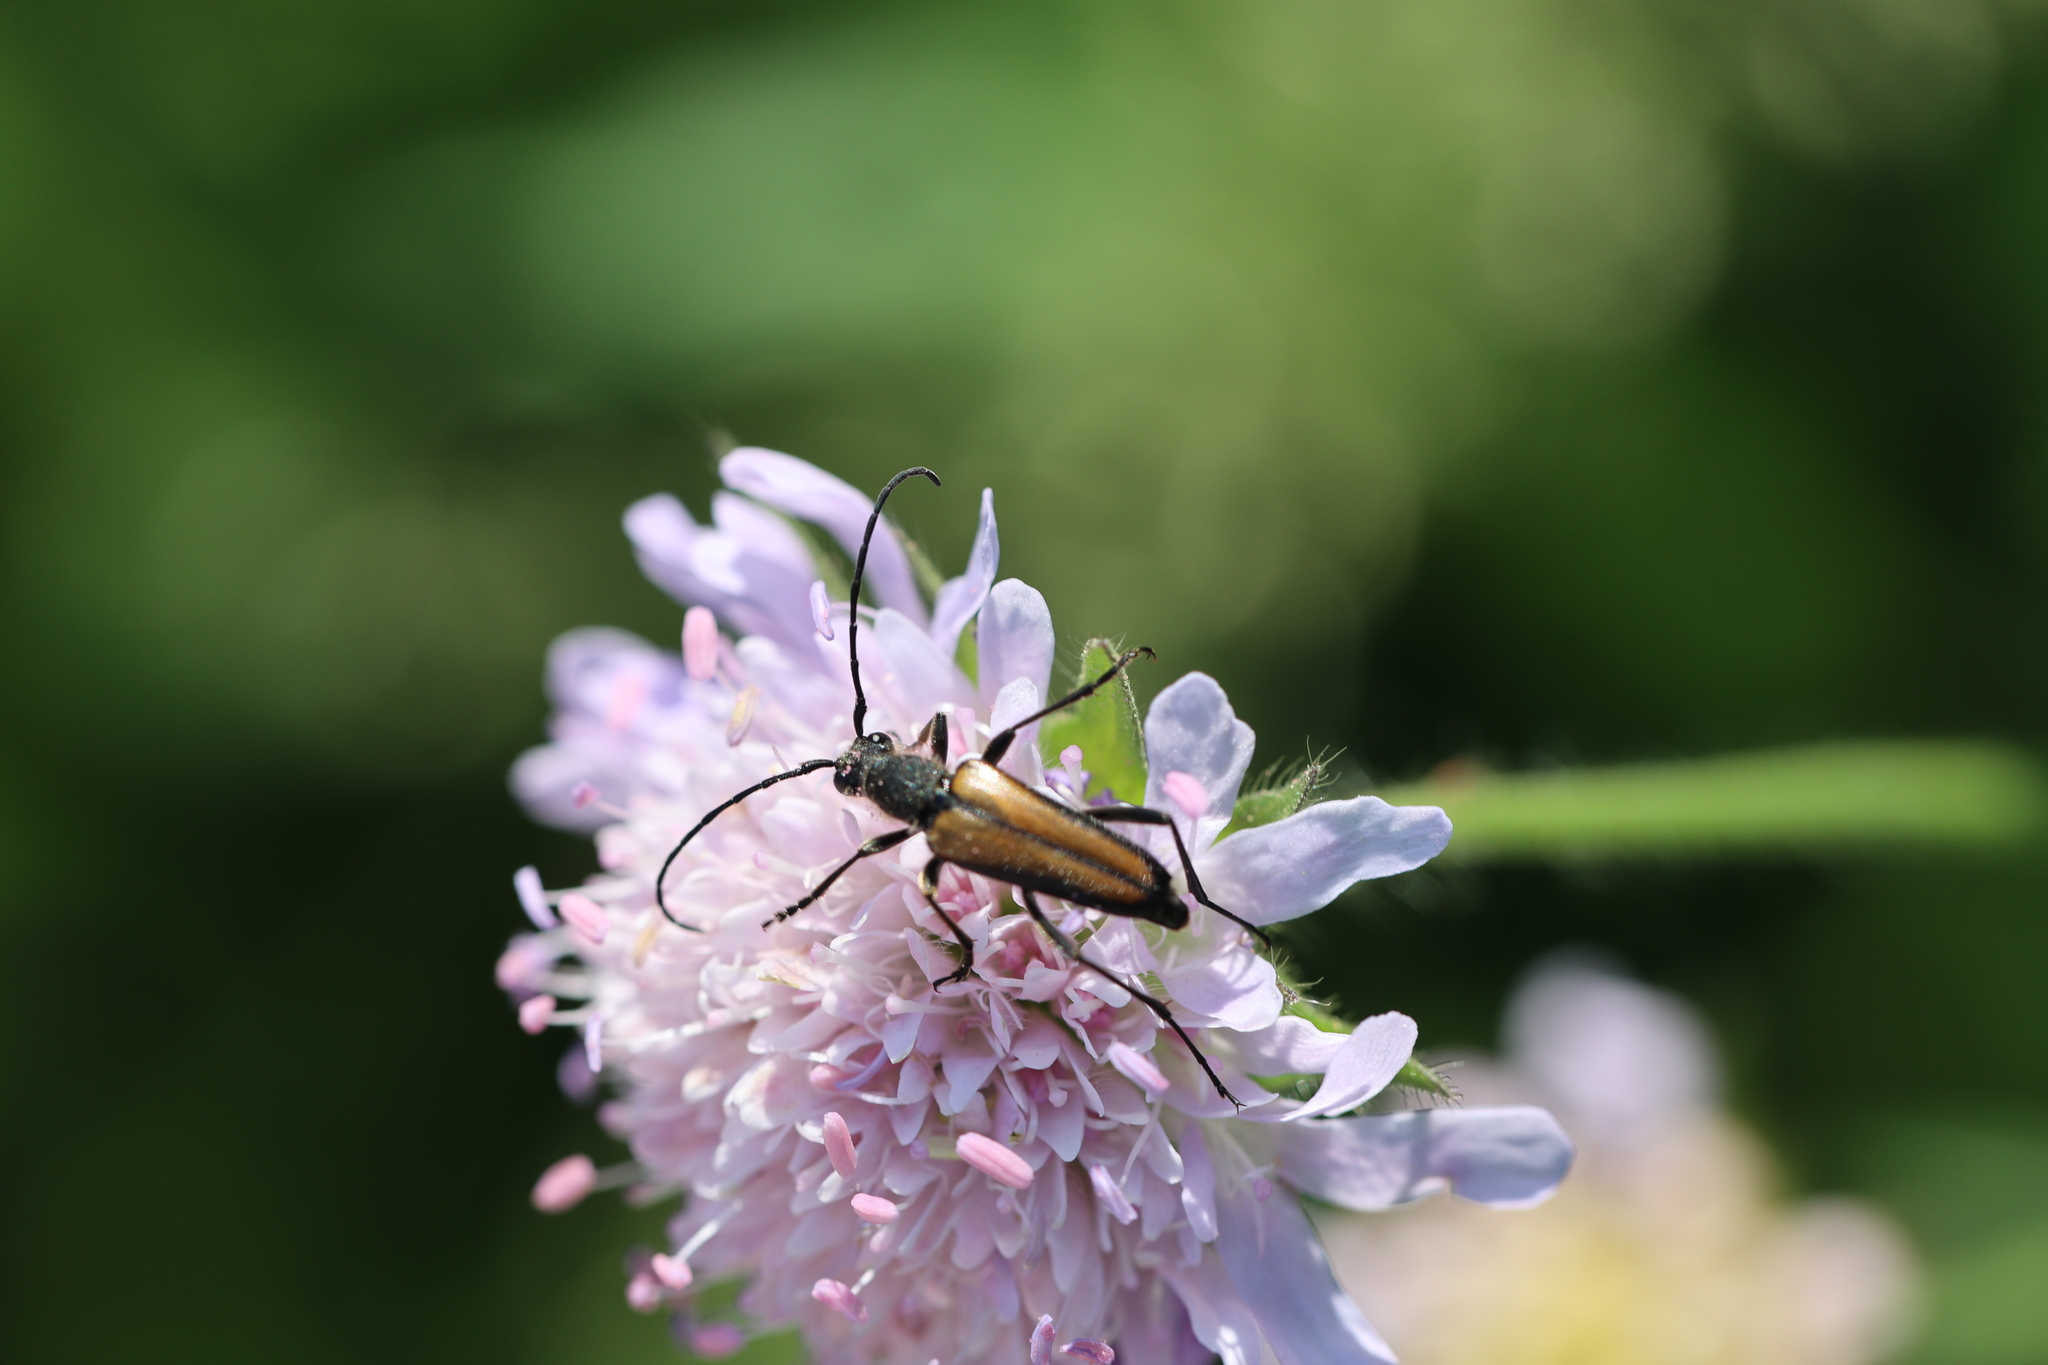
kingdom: Animalia
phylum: Arthropoda
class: Insecta
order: Coleoptera
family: Cerambycidae
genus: Anastrangalia
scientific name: Anastrangalia dubia
